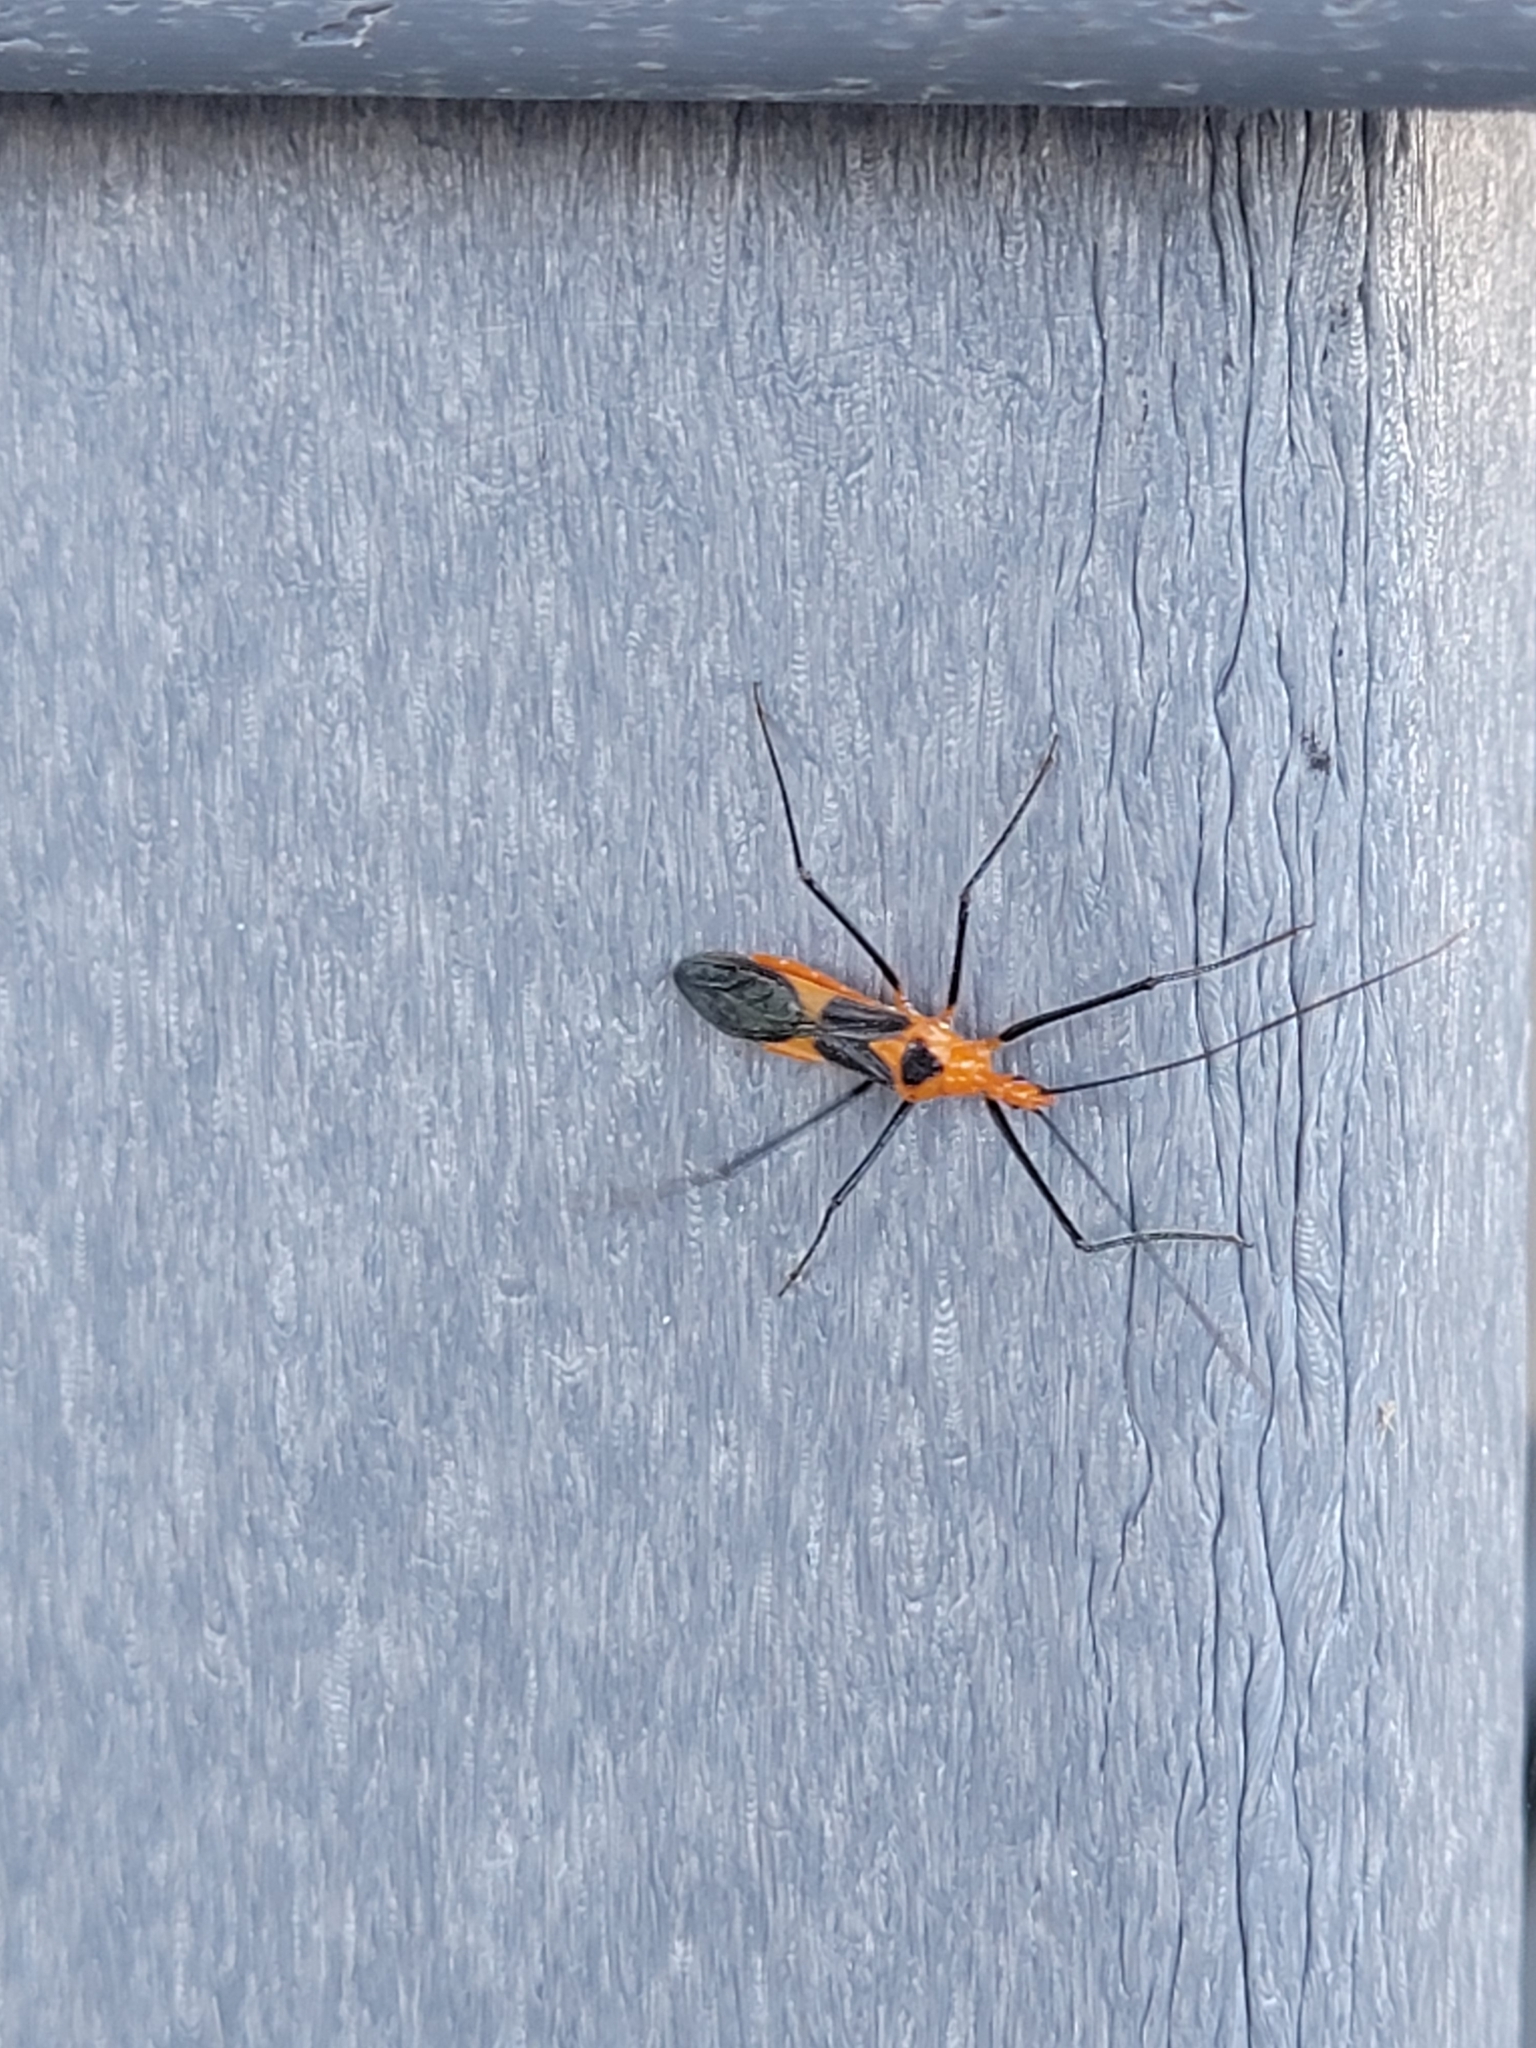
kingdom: Animalia
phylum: Arthropoda
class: Insecta
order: Hemiptera
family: Reduviidae
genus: Zelus
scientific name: Zelus longipes
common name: Milkweed assassin bug
